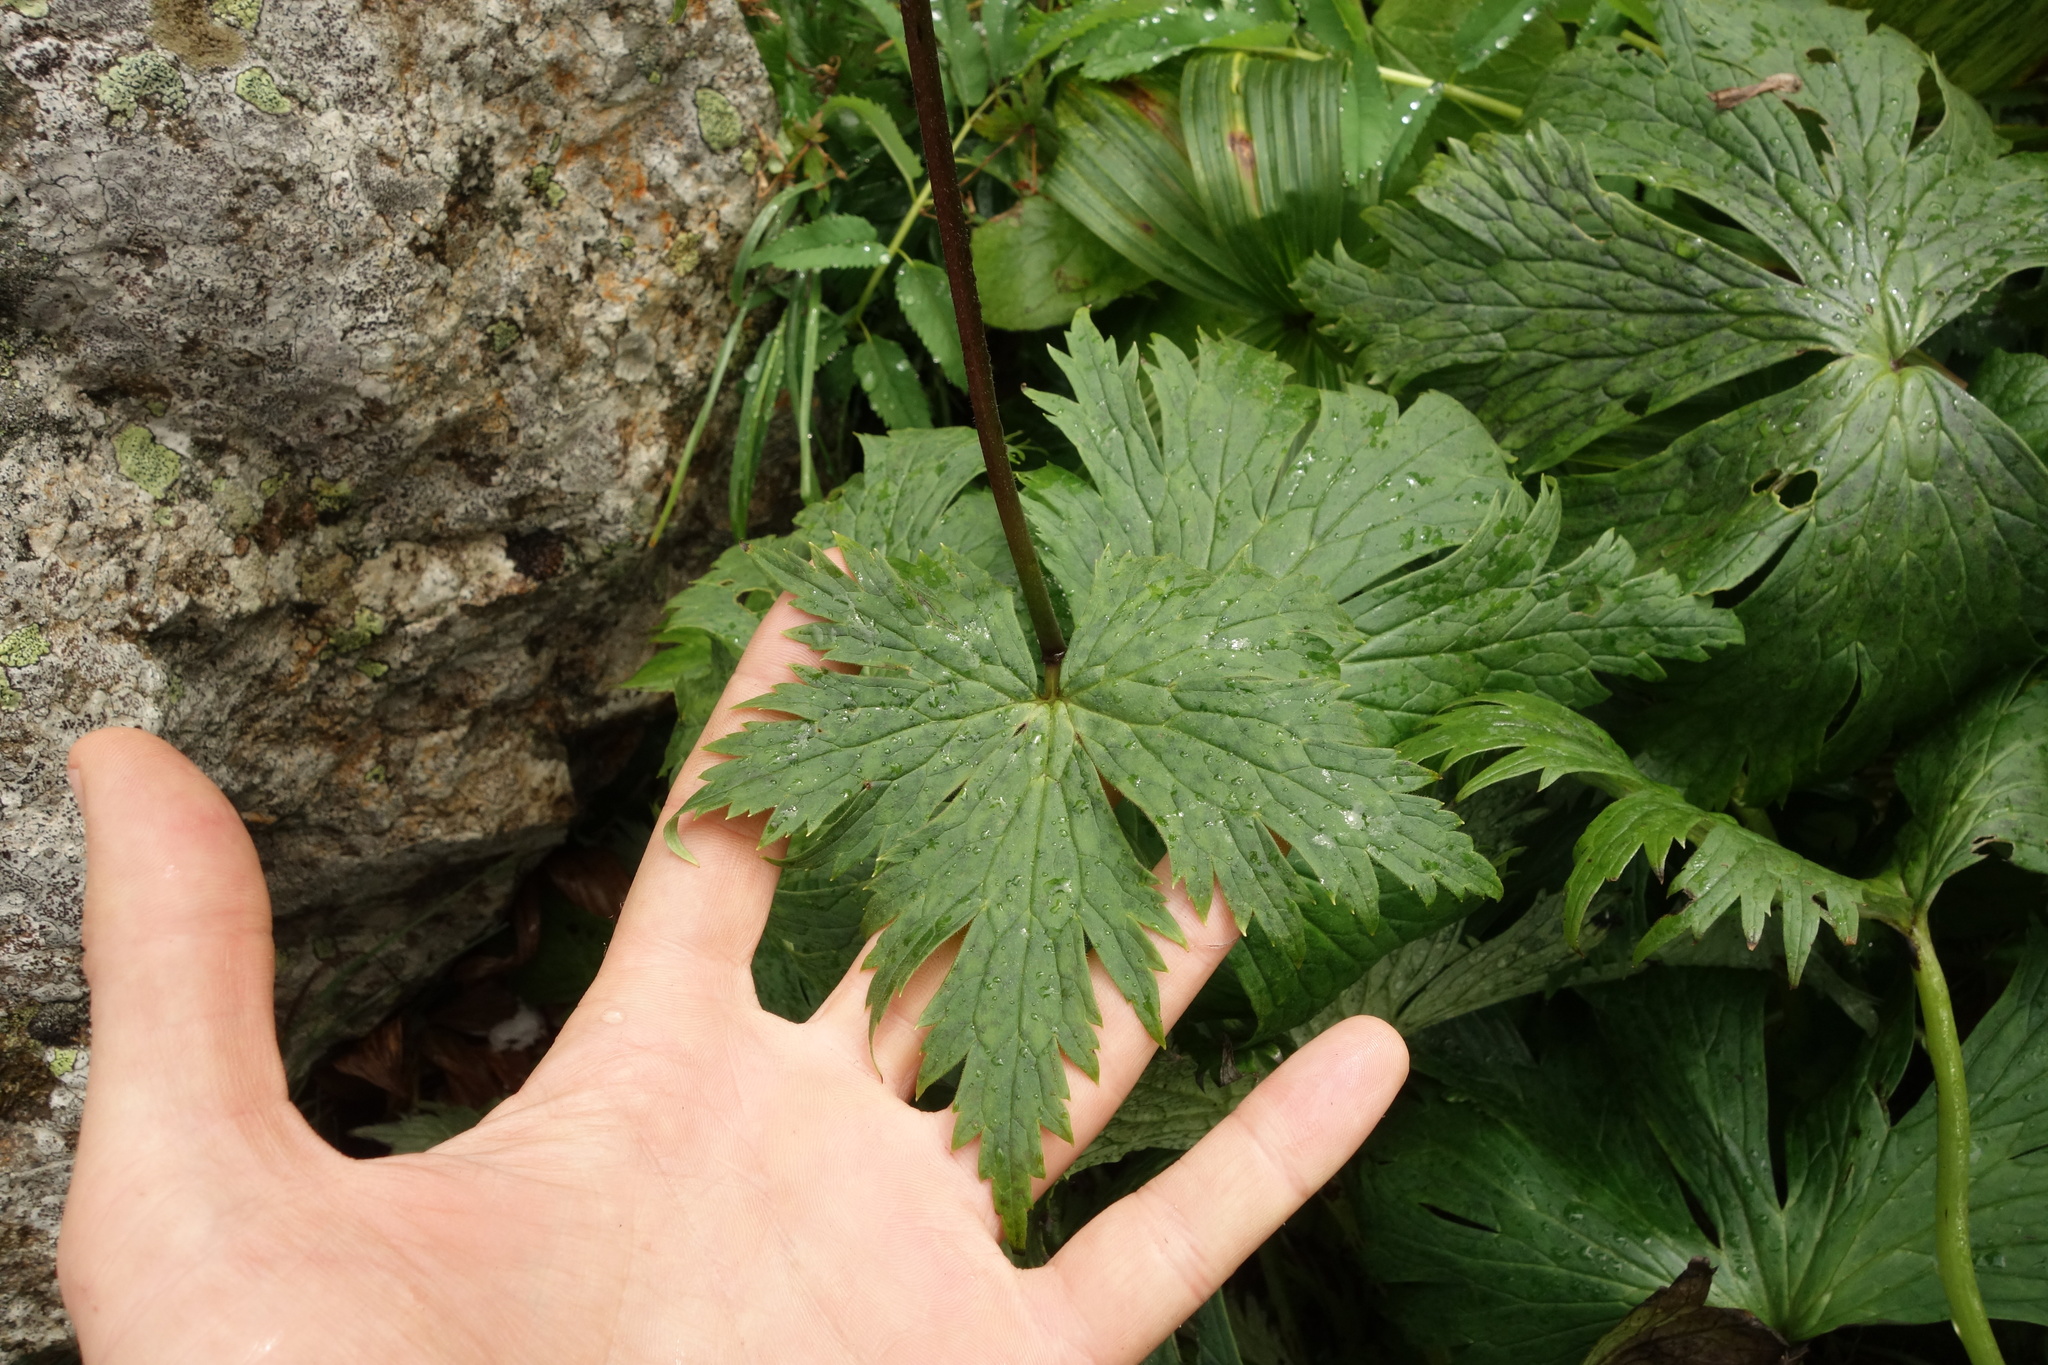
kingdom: Plantae
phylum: Tracheophyta
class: Magnoliopsida
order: Ranunculales
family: Ranunculaceae
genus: Aconitum
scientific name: Aconitum rubicundum
